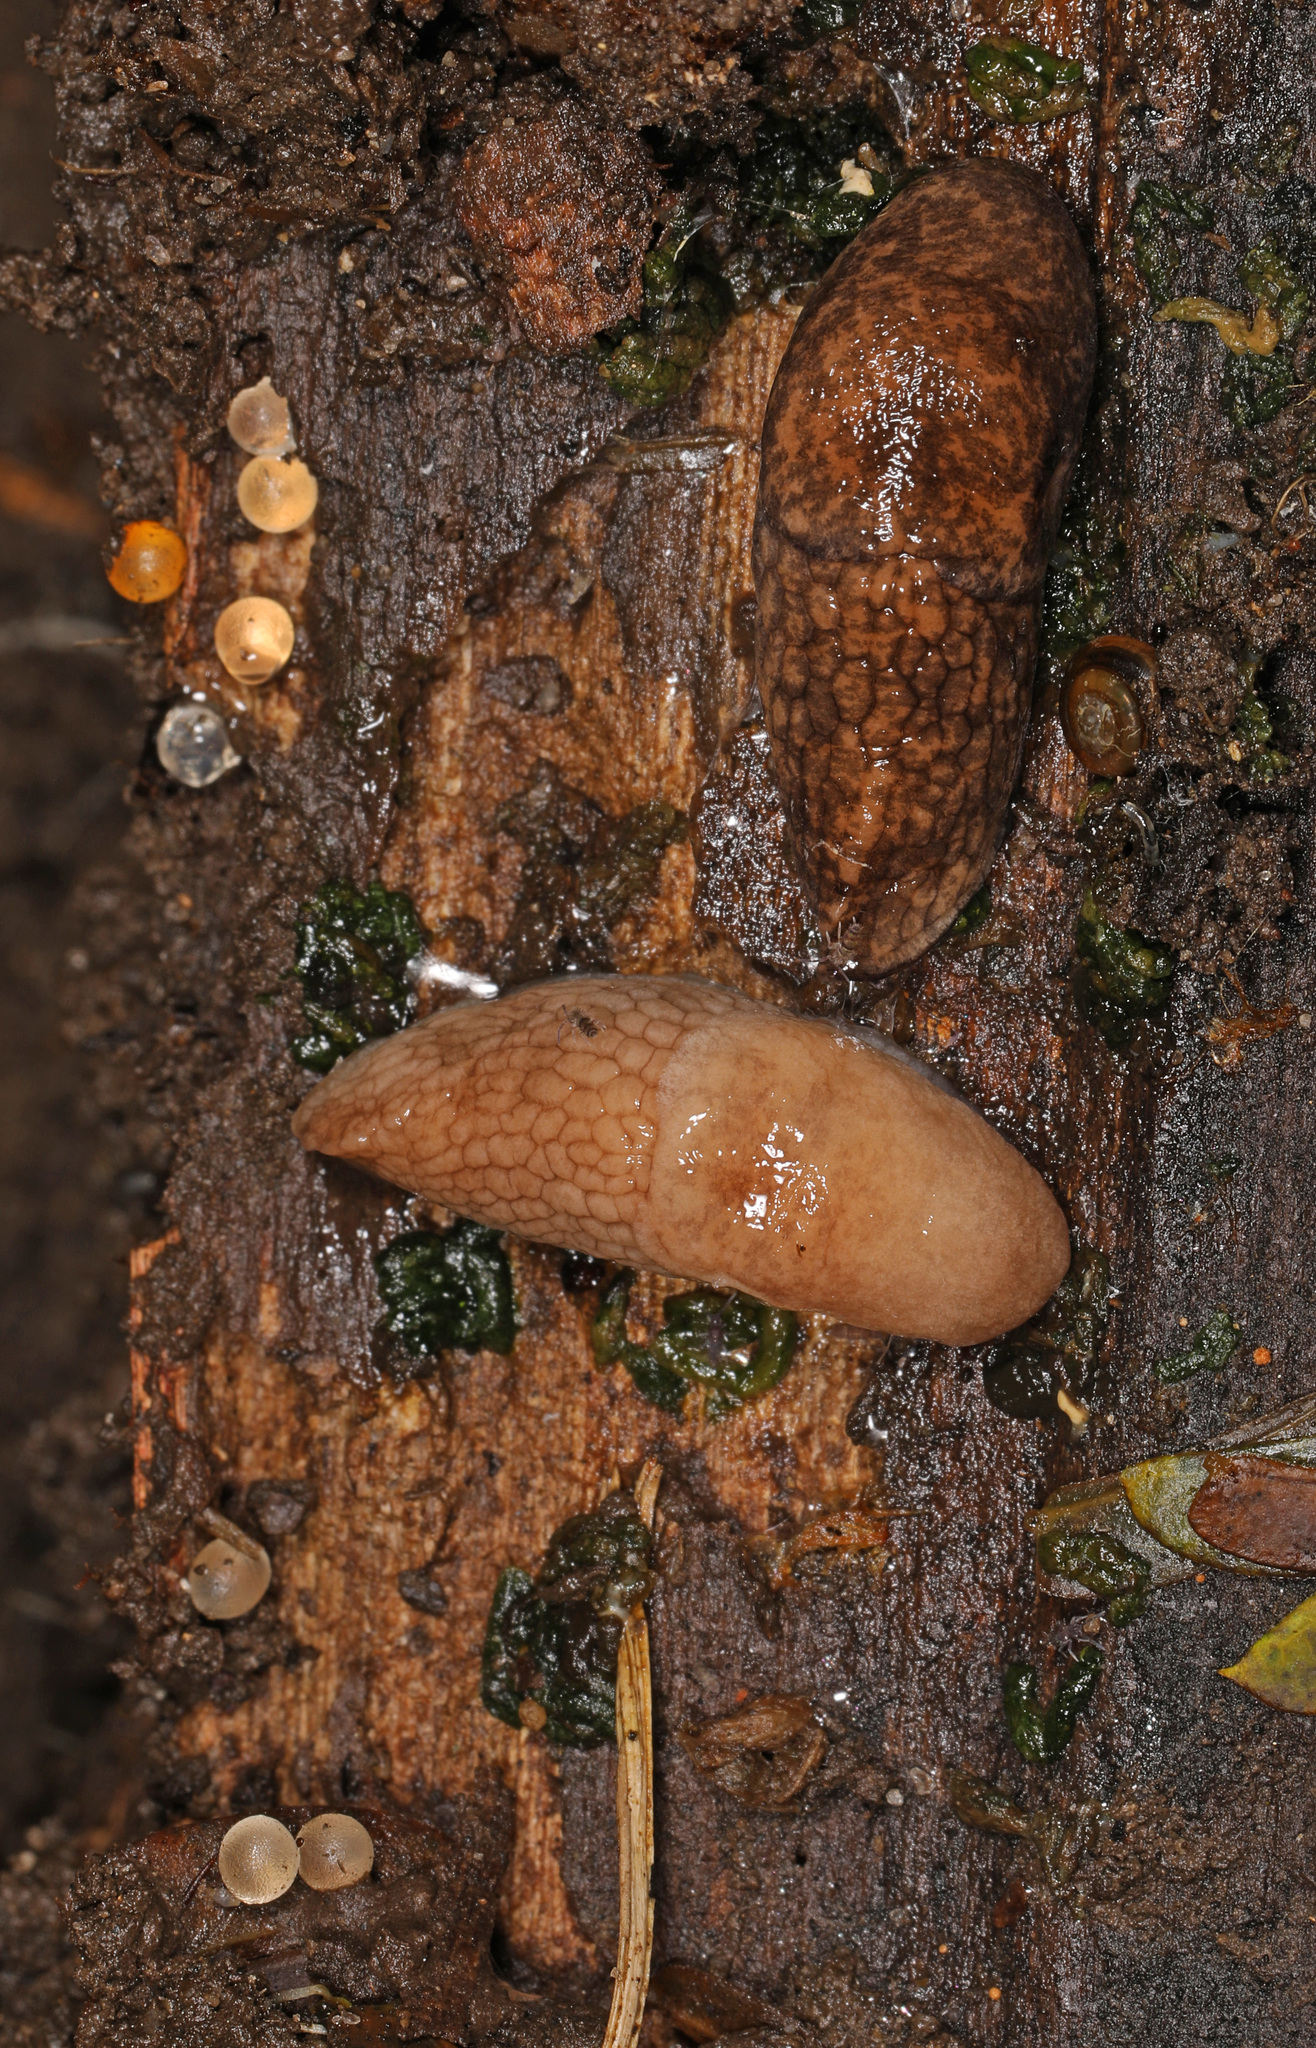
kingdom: Animalia
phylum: Mollusca
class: Gastropoda
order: Stylommatophora
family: Agriolimacidae
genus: Deroceras
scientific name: Deroceras reticulatum
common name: Gray field slug
